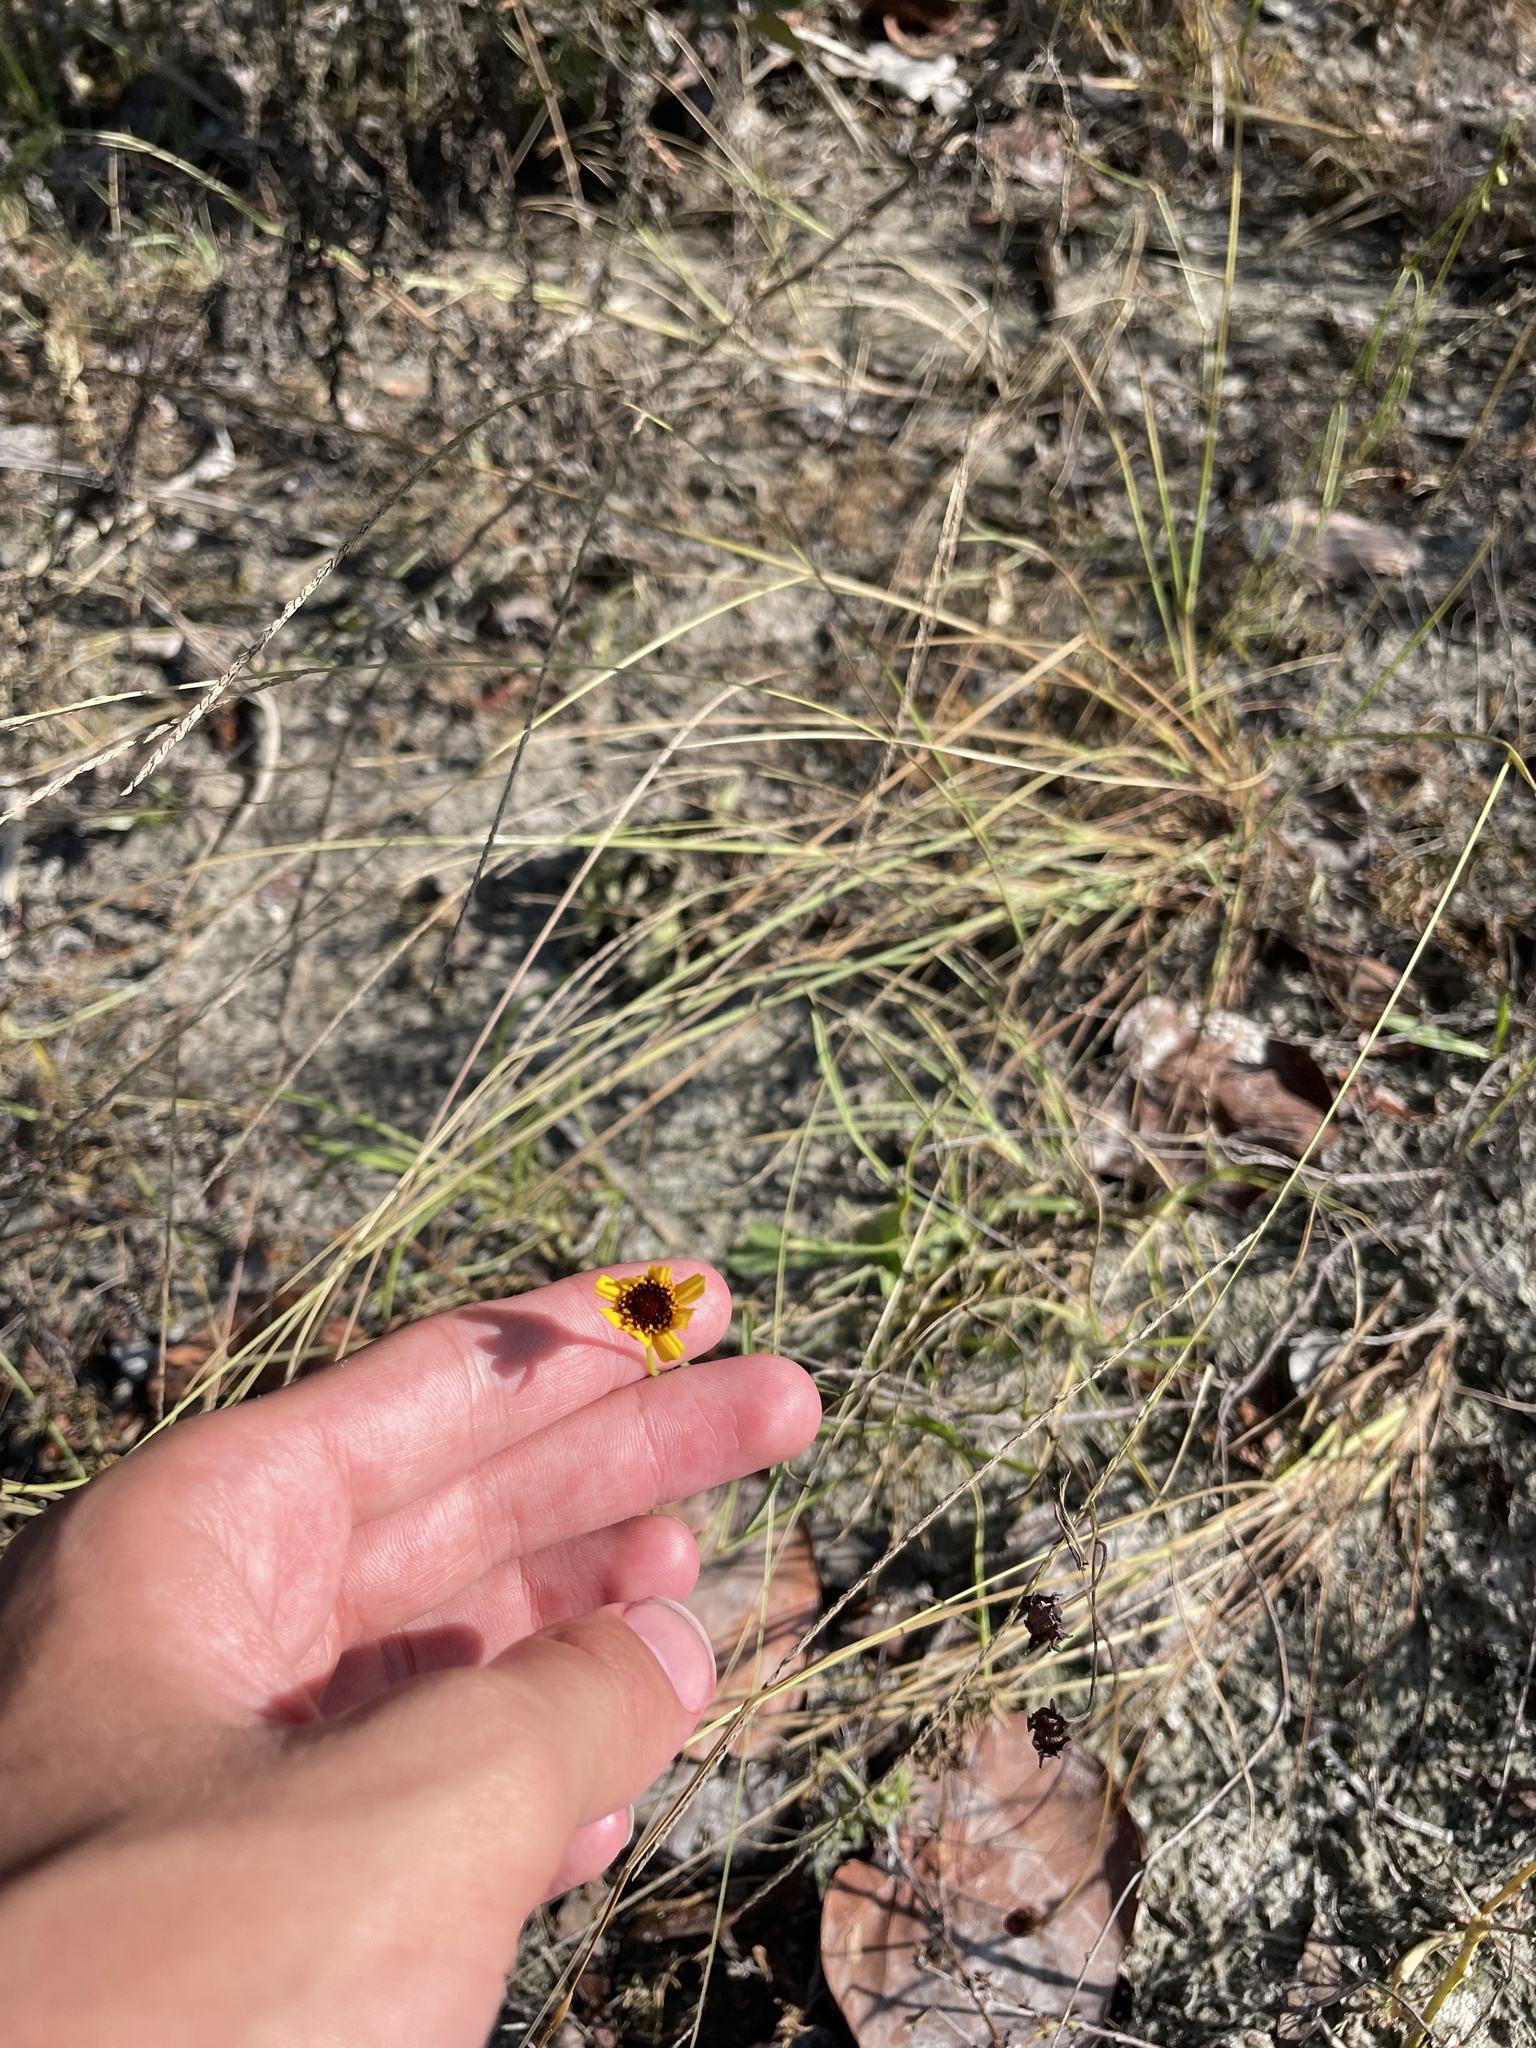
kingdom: Plantae
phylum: Tracheophyta
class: Magnoliopsida
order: Asterales
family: Asteraceae
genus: Coreopsis
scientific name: Coreopsis leavenworthii
